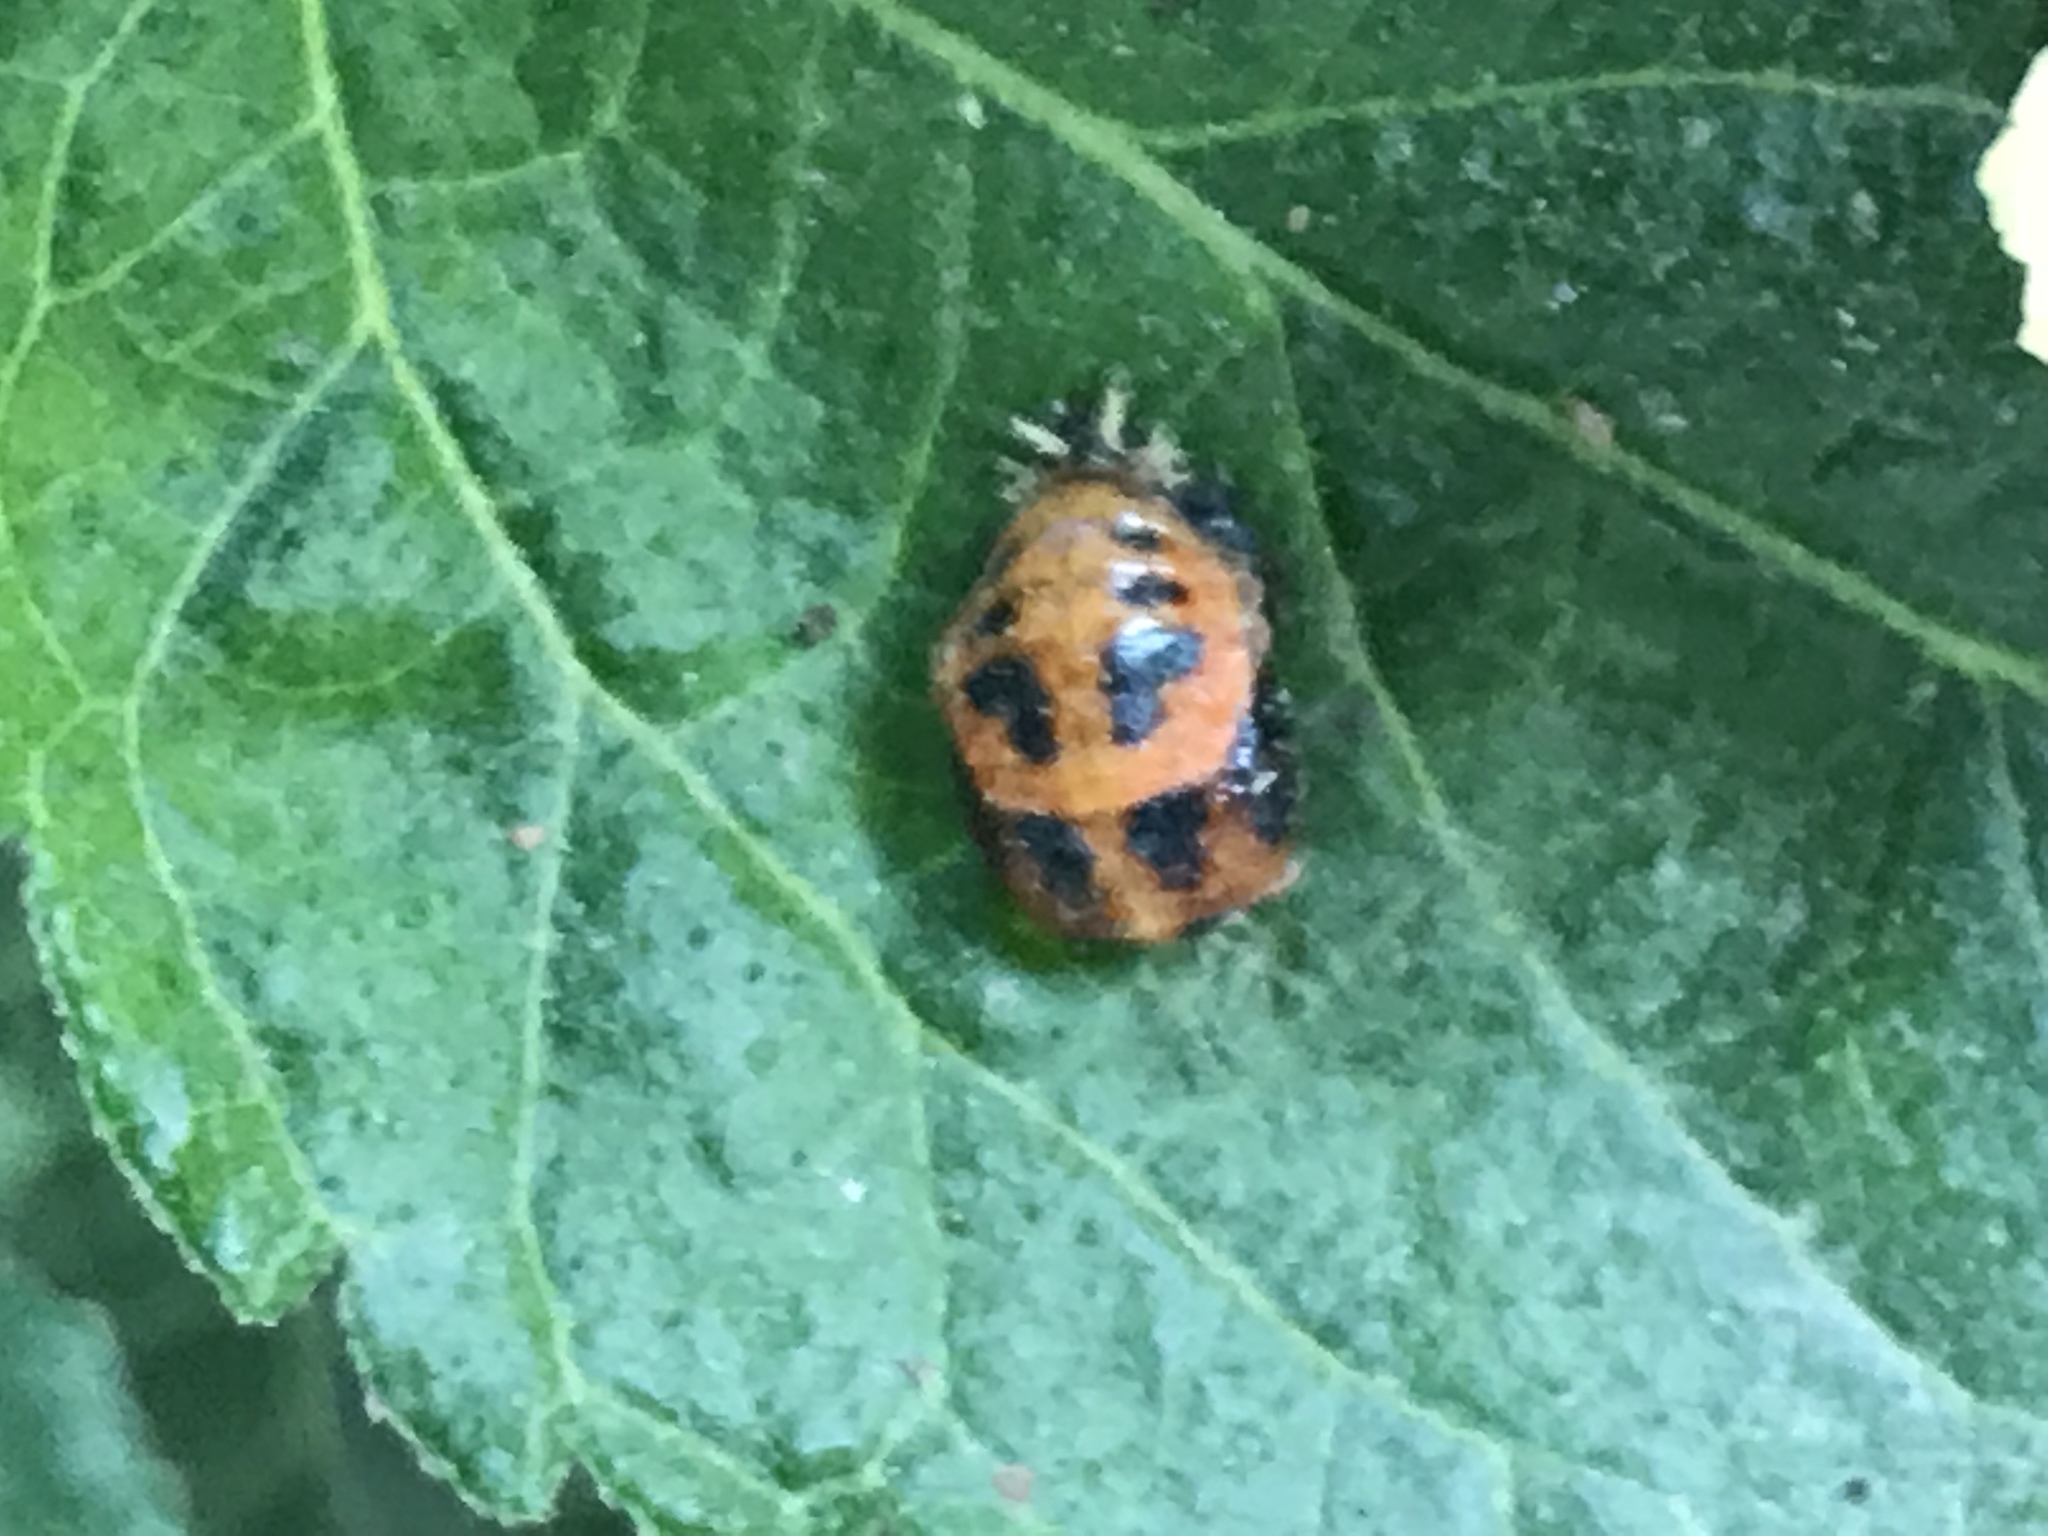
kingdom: Animalia
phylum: Arthropoda
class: Insecta
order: Coleoptera
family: Coccinellidae
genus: Harmonia
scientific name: Harmonia axyridis
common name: Harlequin ladybird
